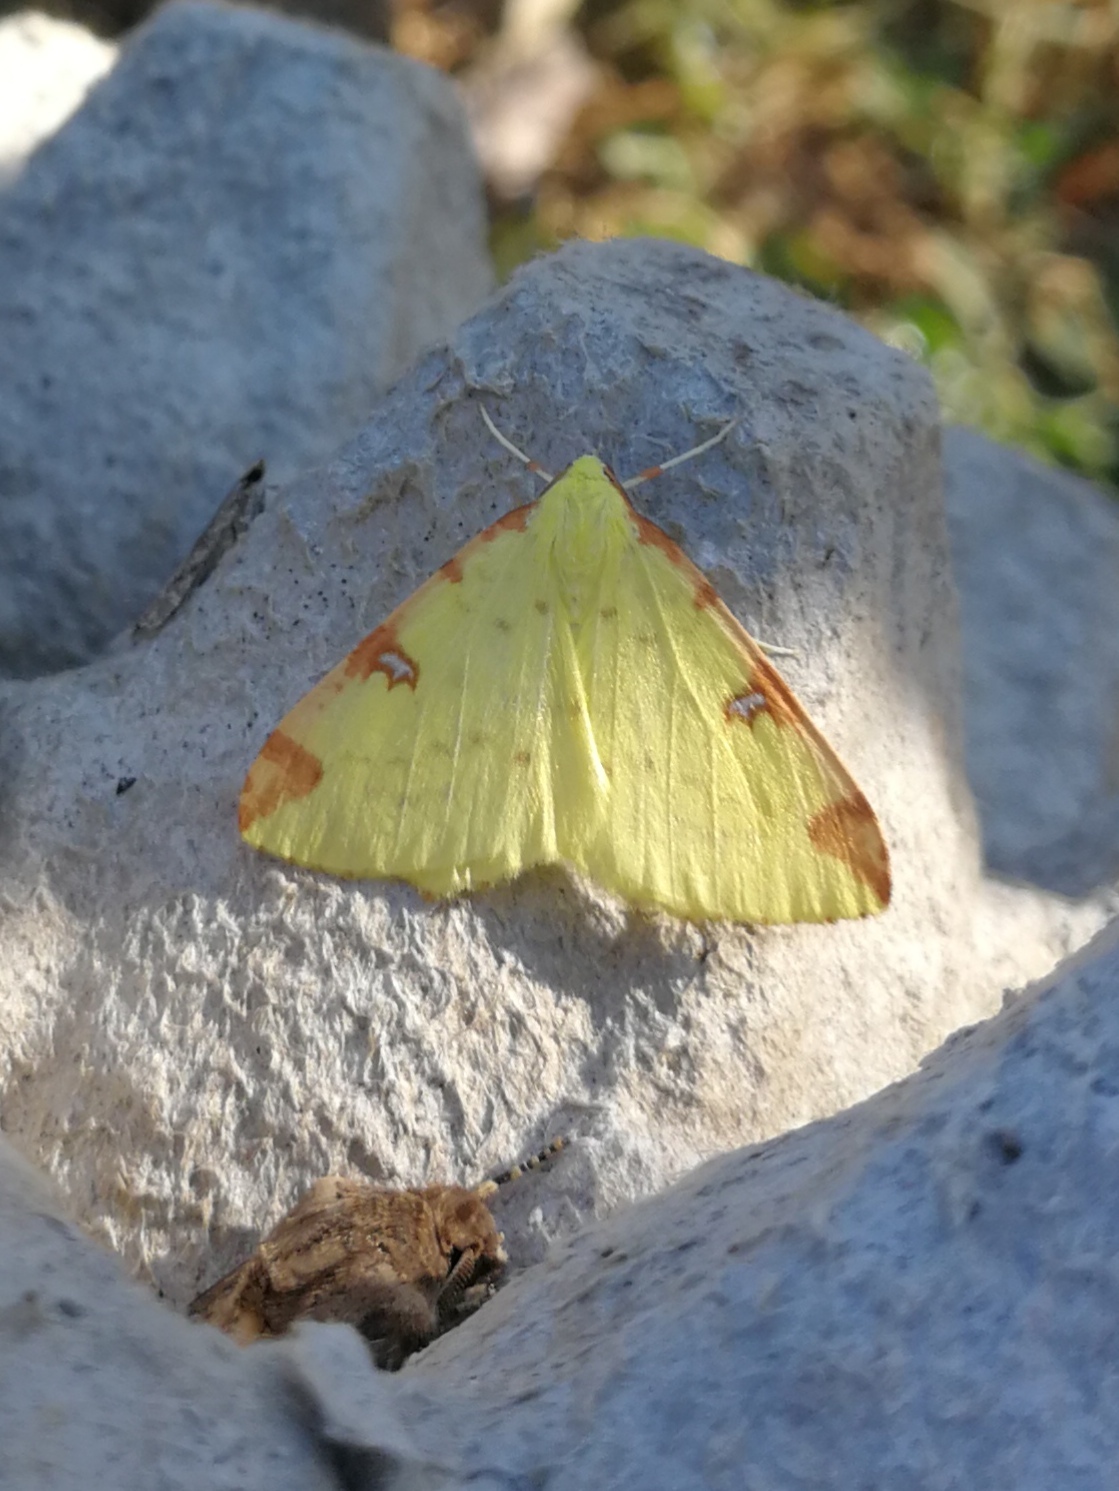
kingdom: Animalia
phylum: Arthropoda
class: Insecta
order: Lepidoptera
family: Geometridae
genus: Opisthograptis
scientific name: Opisthograptis luteolata
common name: Brimstone moth
